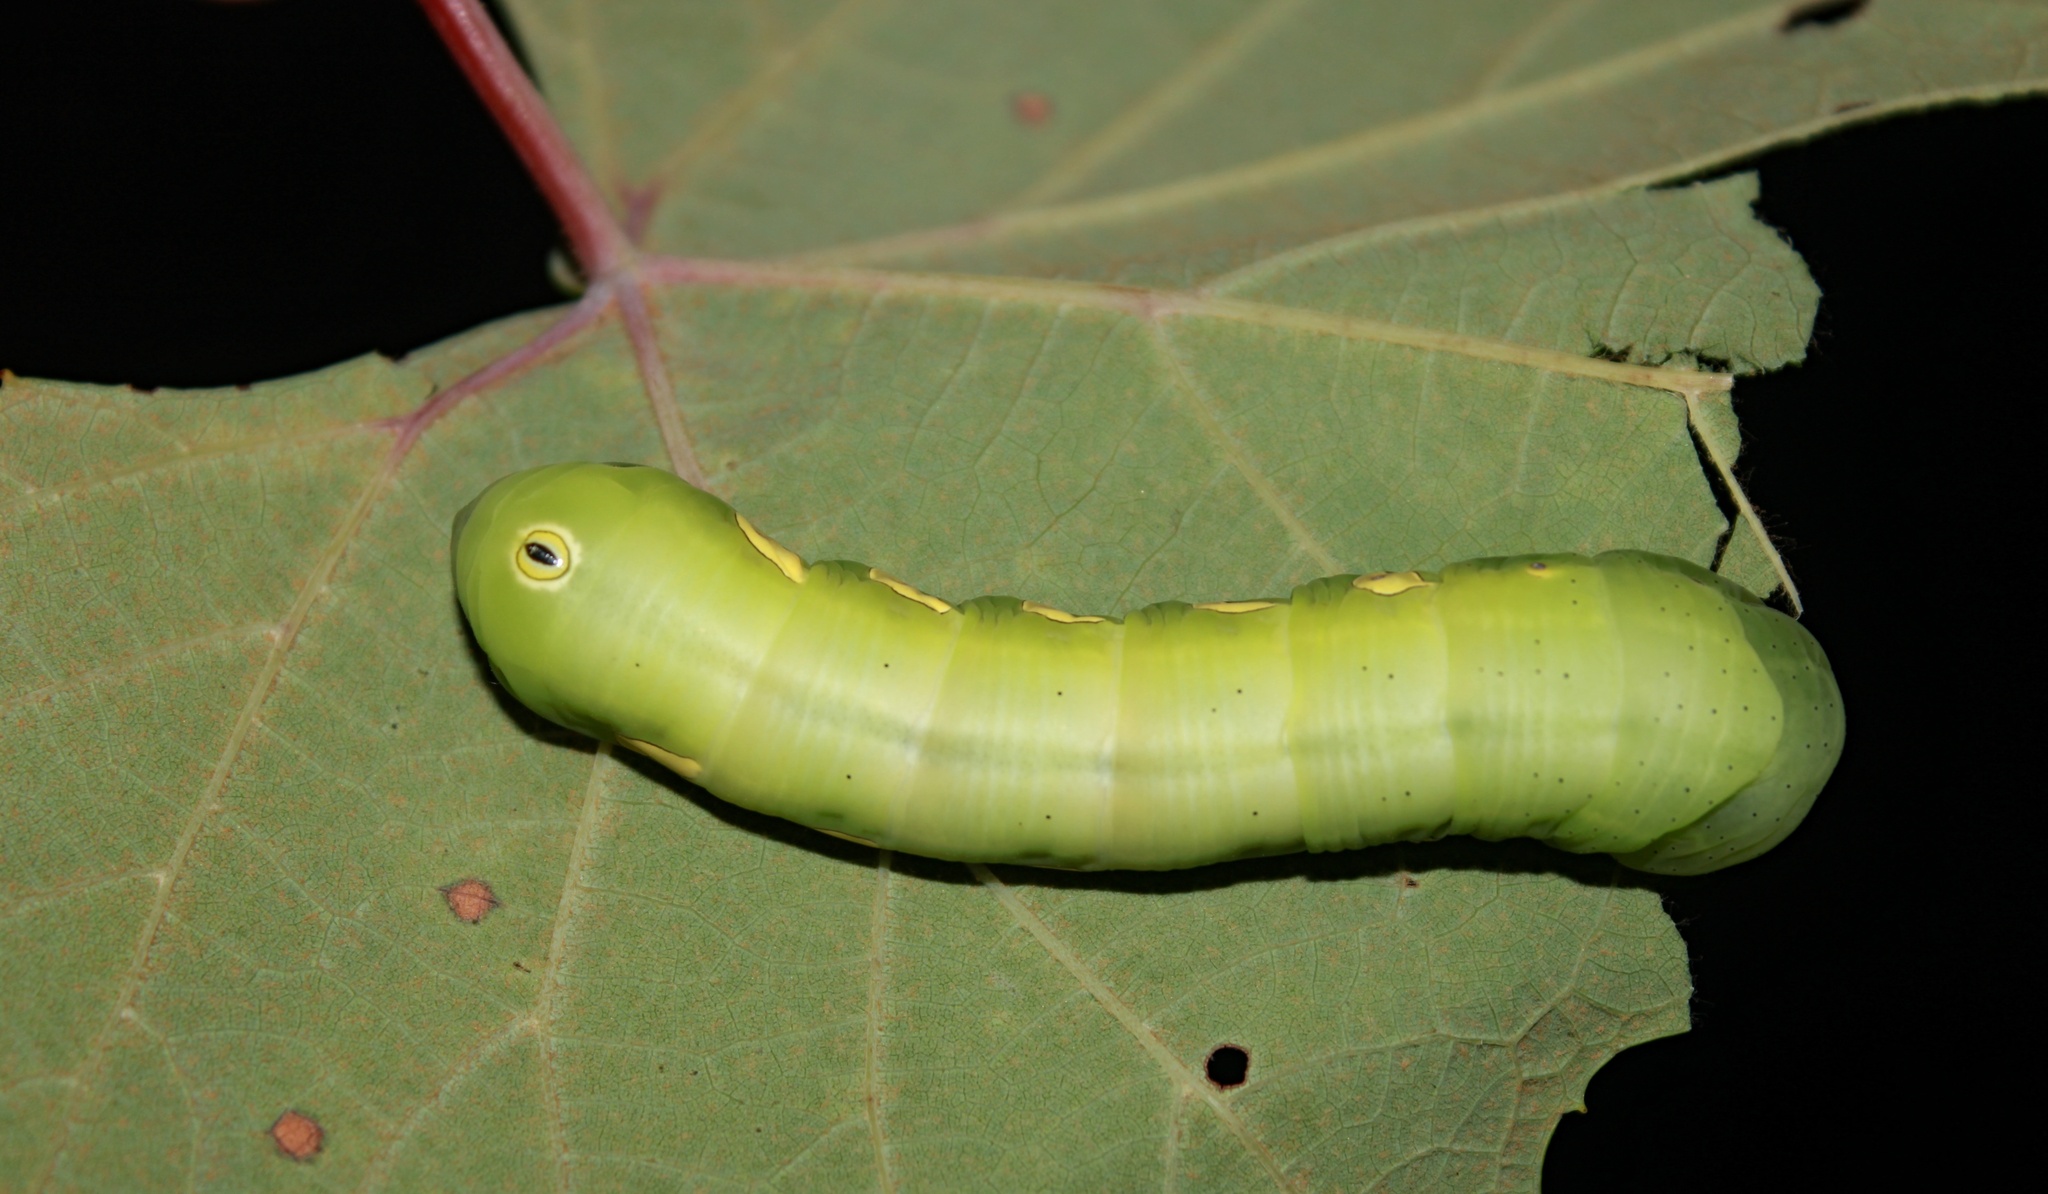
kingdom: Animalia
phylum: Arthropoda
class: Insecta
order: Lepidoptera
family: Sphingidae
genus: Eumorpha
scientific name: Eumorpha pandorus
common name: Pandora sphinx
